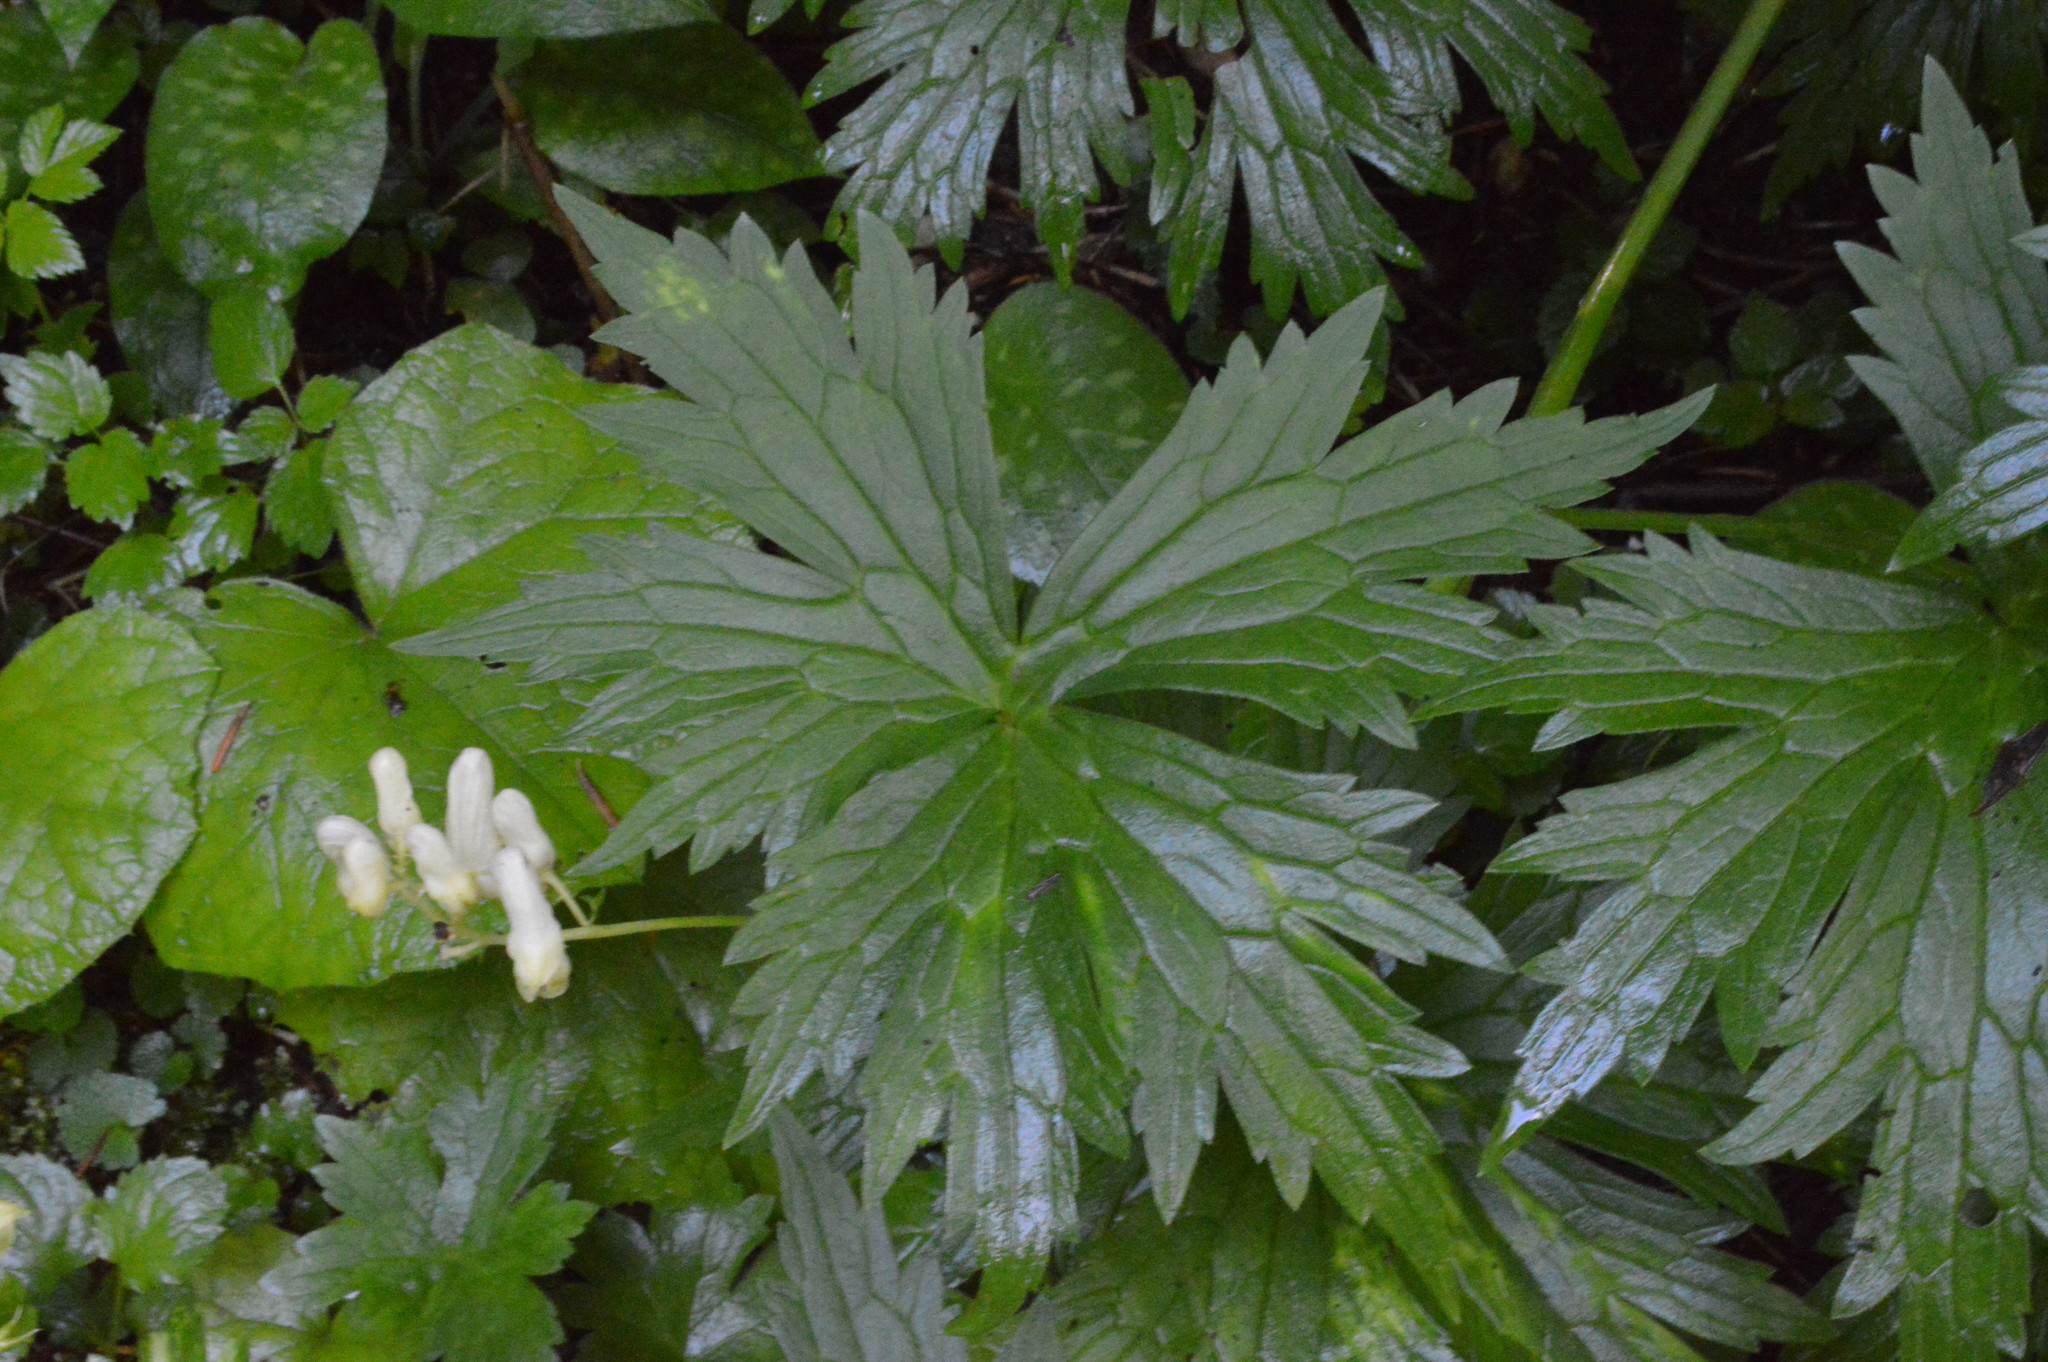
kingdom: Plantae
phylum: Tracheophyta
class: Magnoliopsida
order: Ranunculales
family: Ranunculaceae
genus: Aconitum
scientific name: Aconitum lycoctonum
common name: Wolf's-bane
